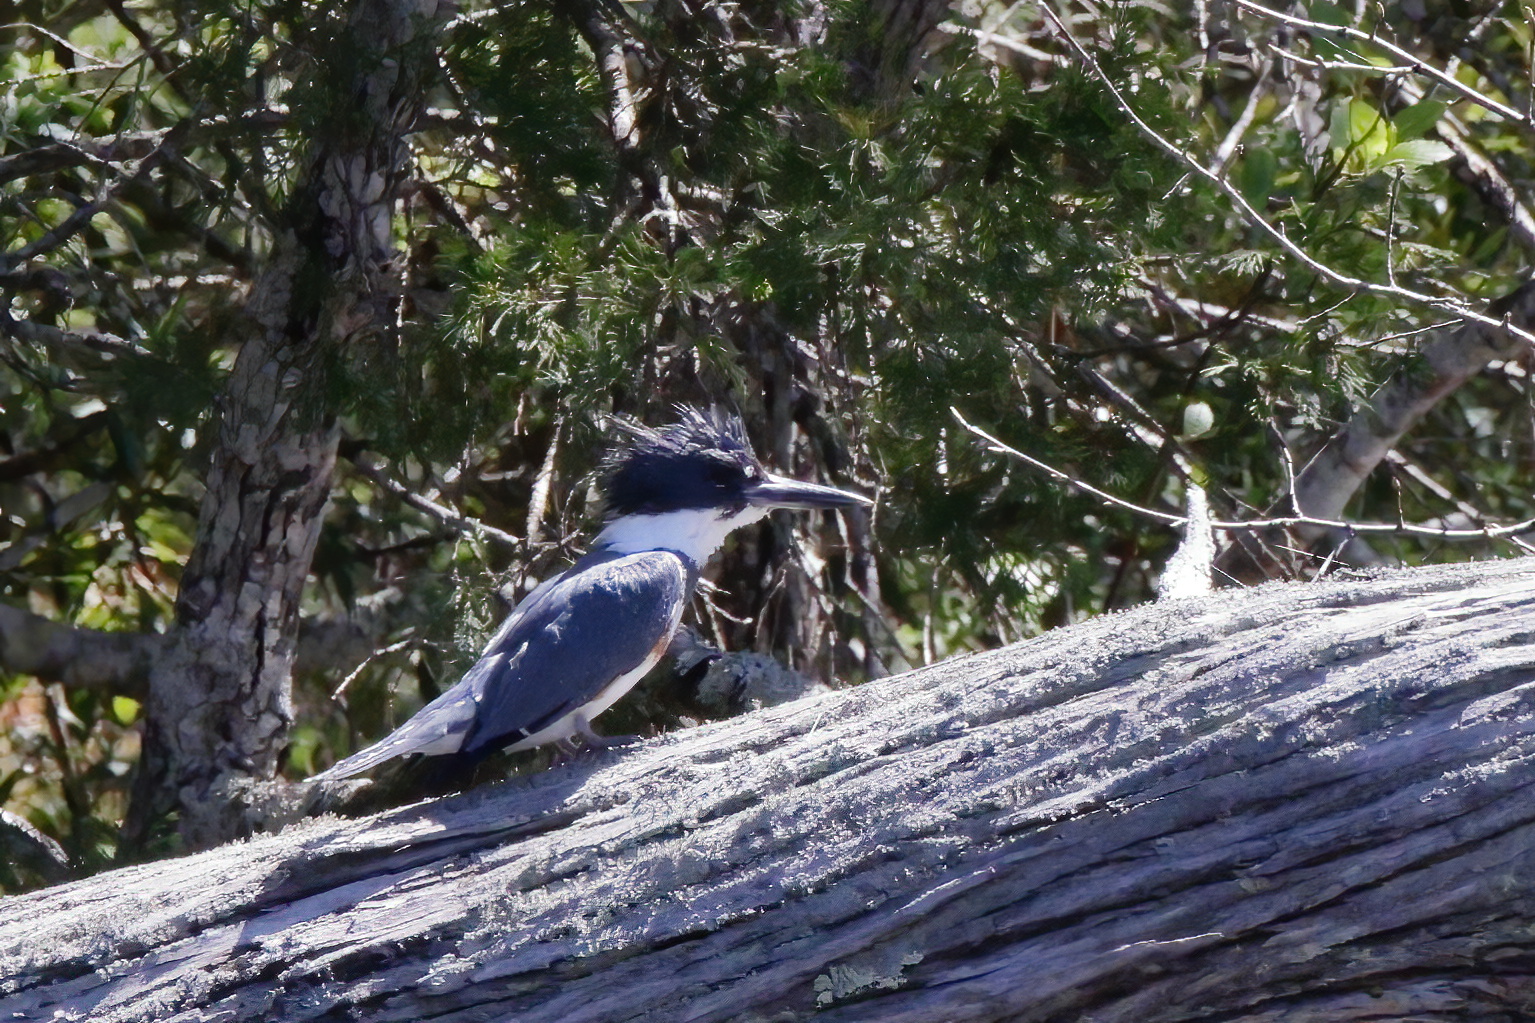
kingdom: Animalia
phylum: Chordata
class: Aves
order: Coraciiformes
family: Alcedinidae
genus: Megaceryle
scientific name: Megaceryle alcyon
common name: Belted kingfisher
